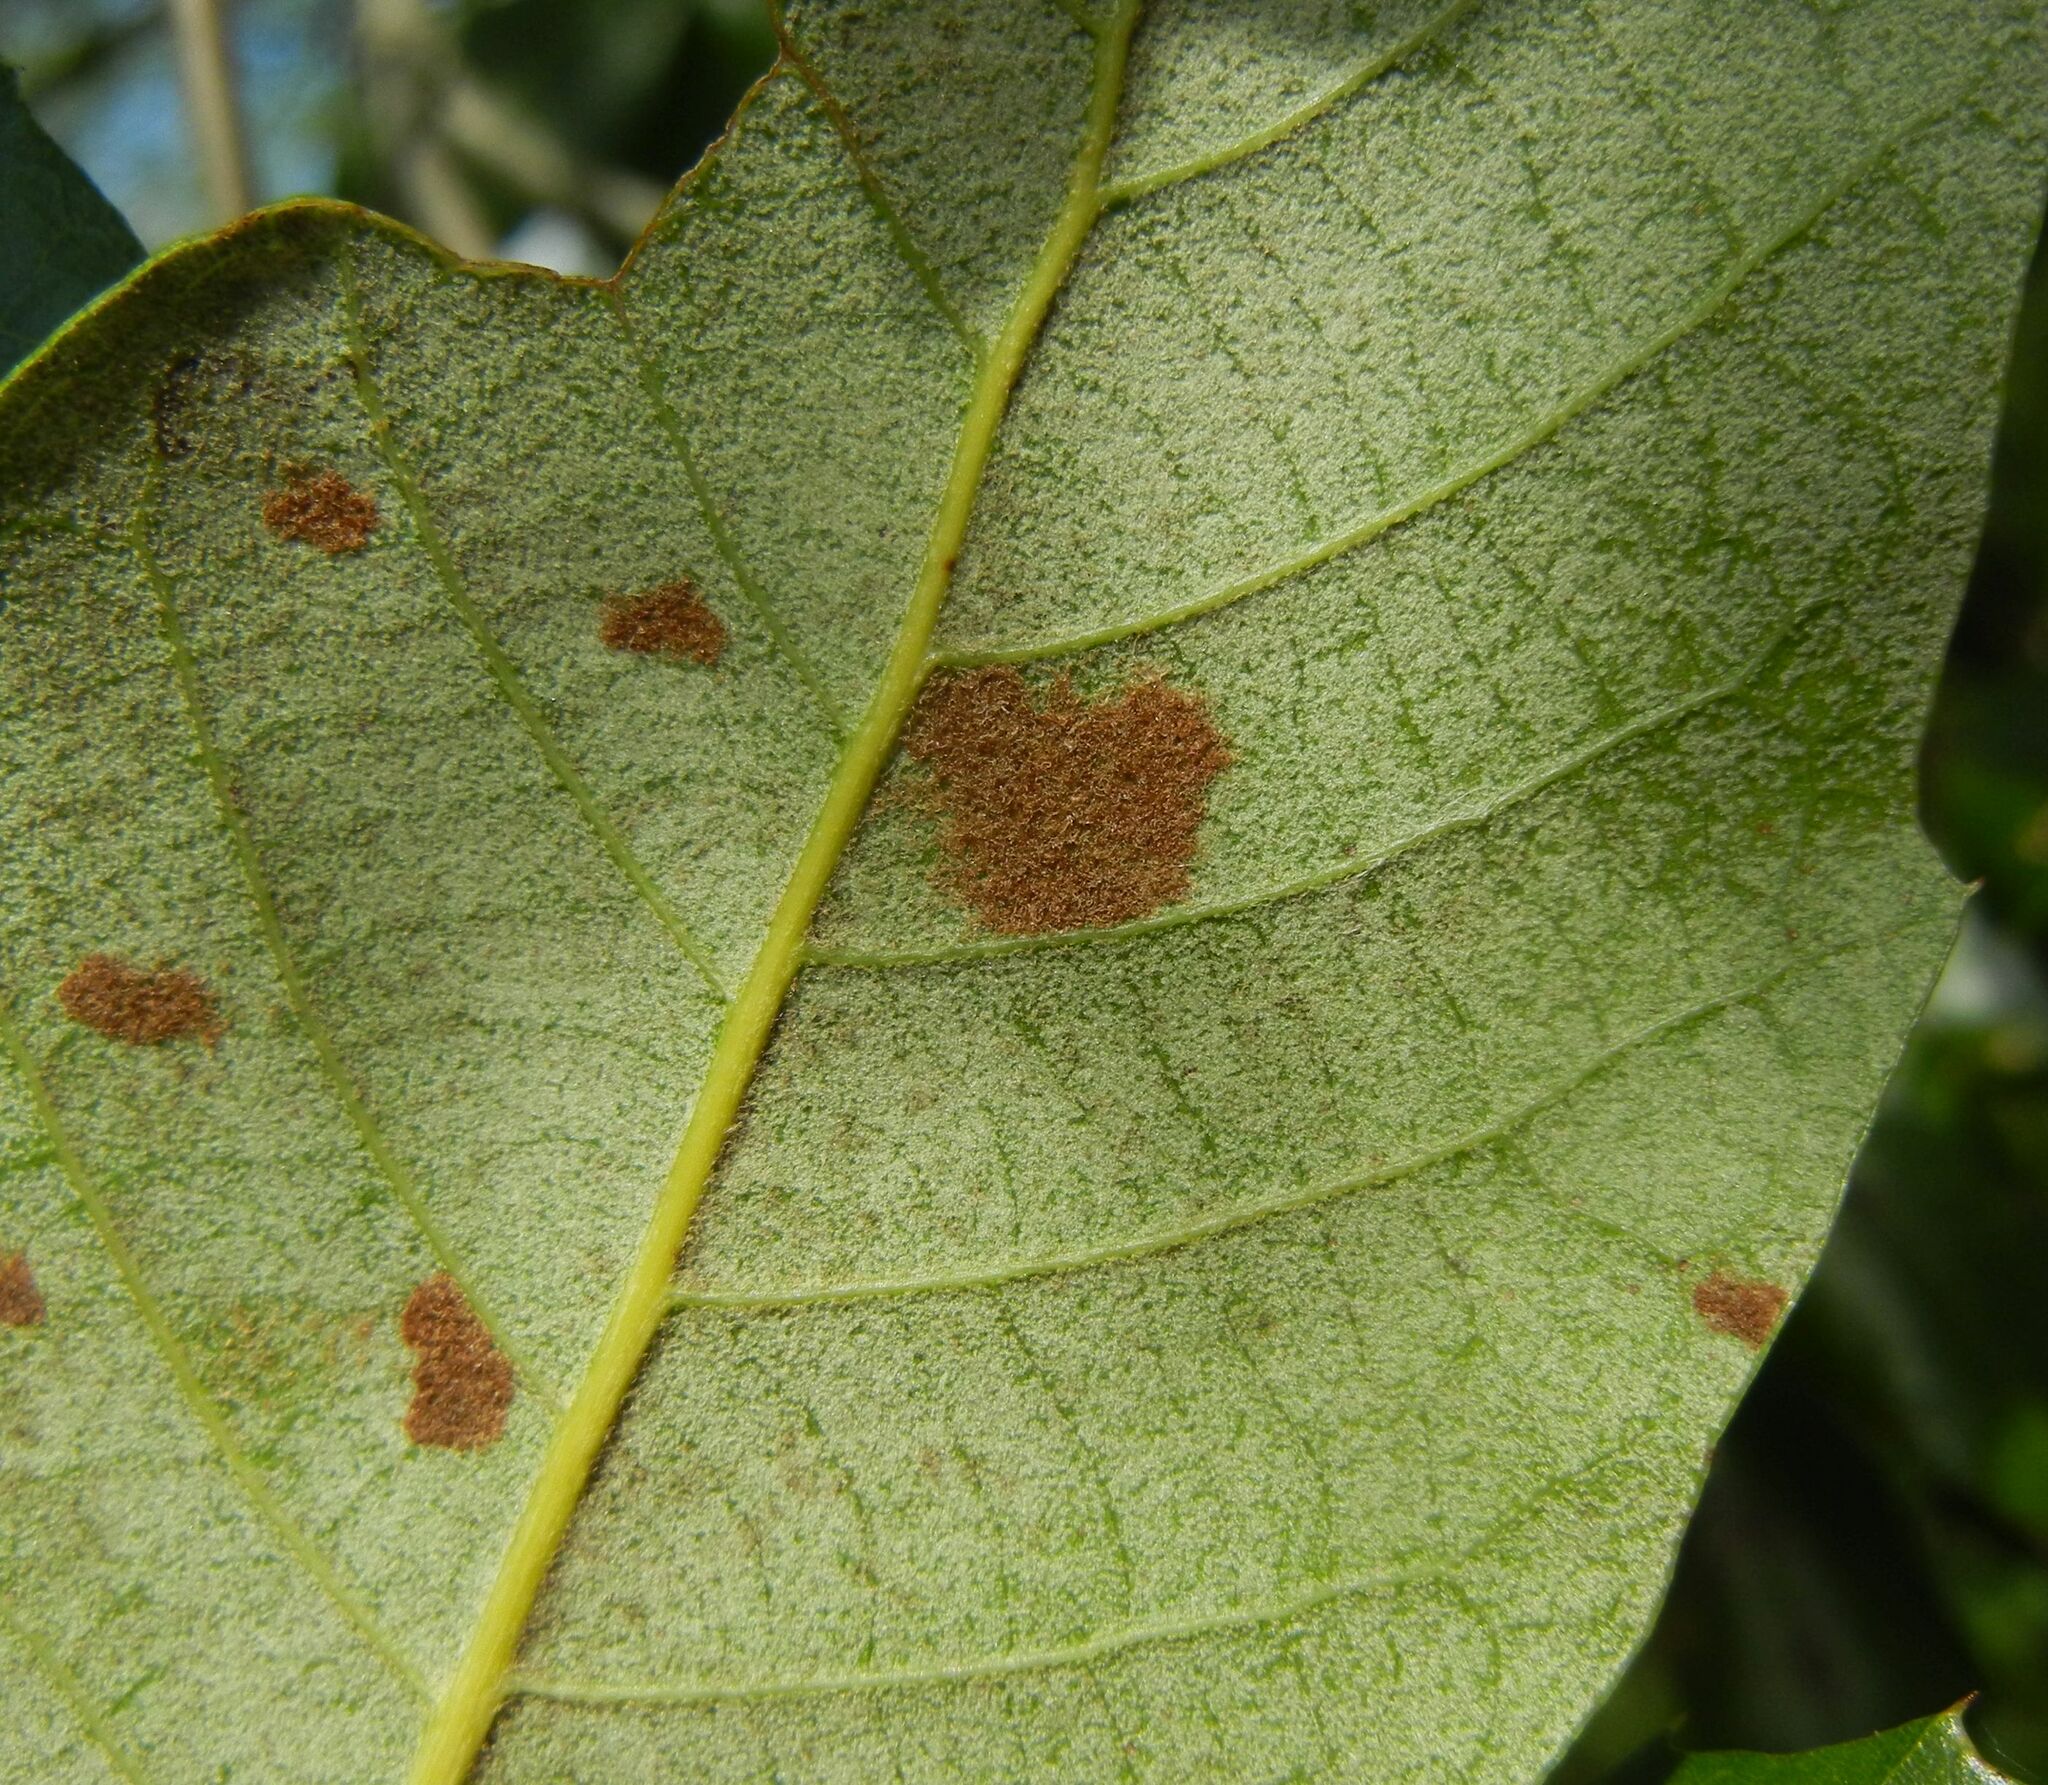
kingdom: Animalia
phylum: Arthropoda
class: Arachnida
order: Trombidiformes
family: Eriophyidae
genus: Aceria
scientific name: Aceria ilicis
